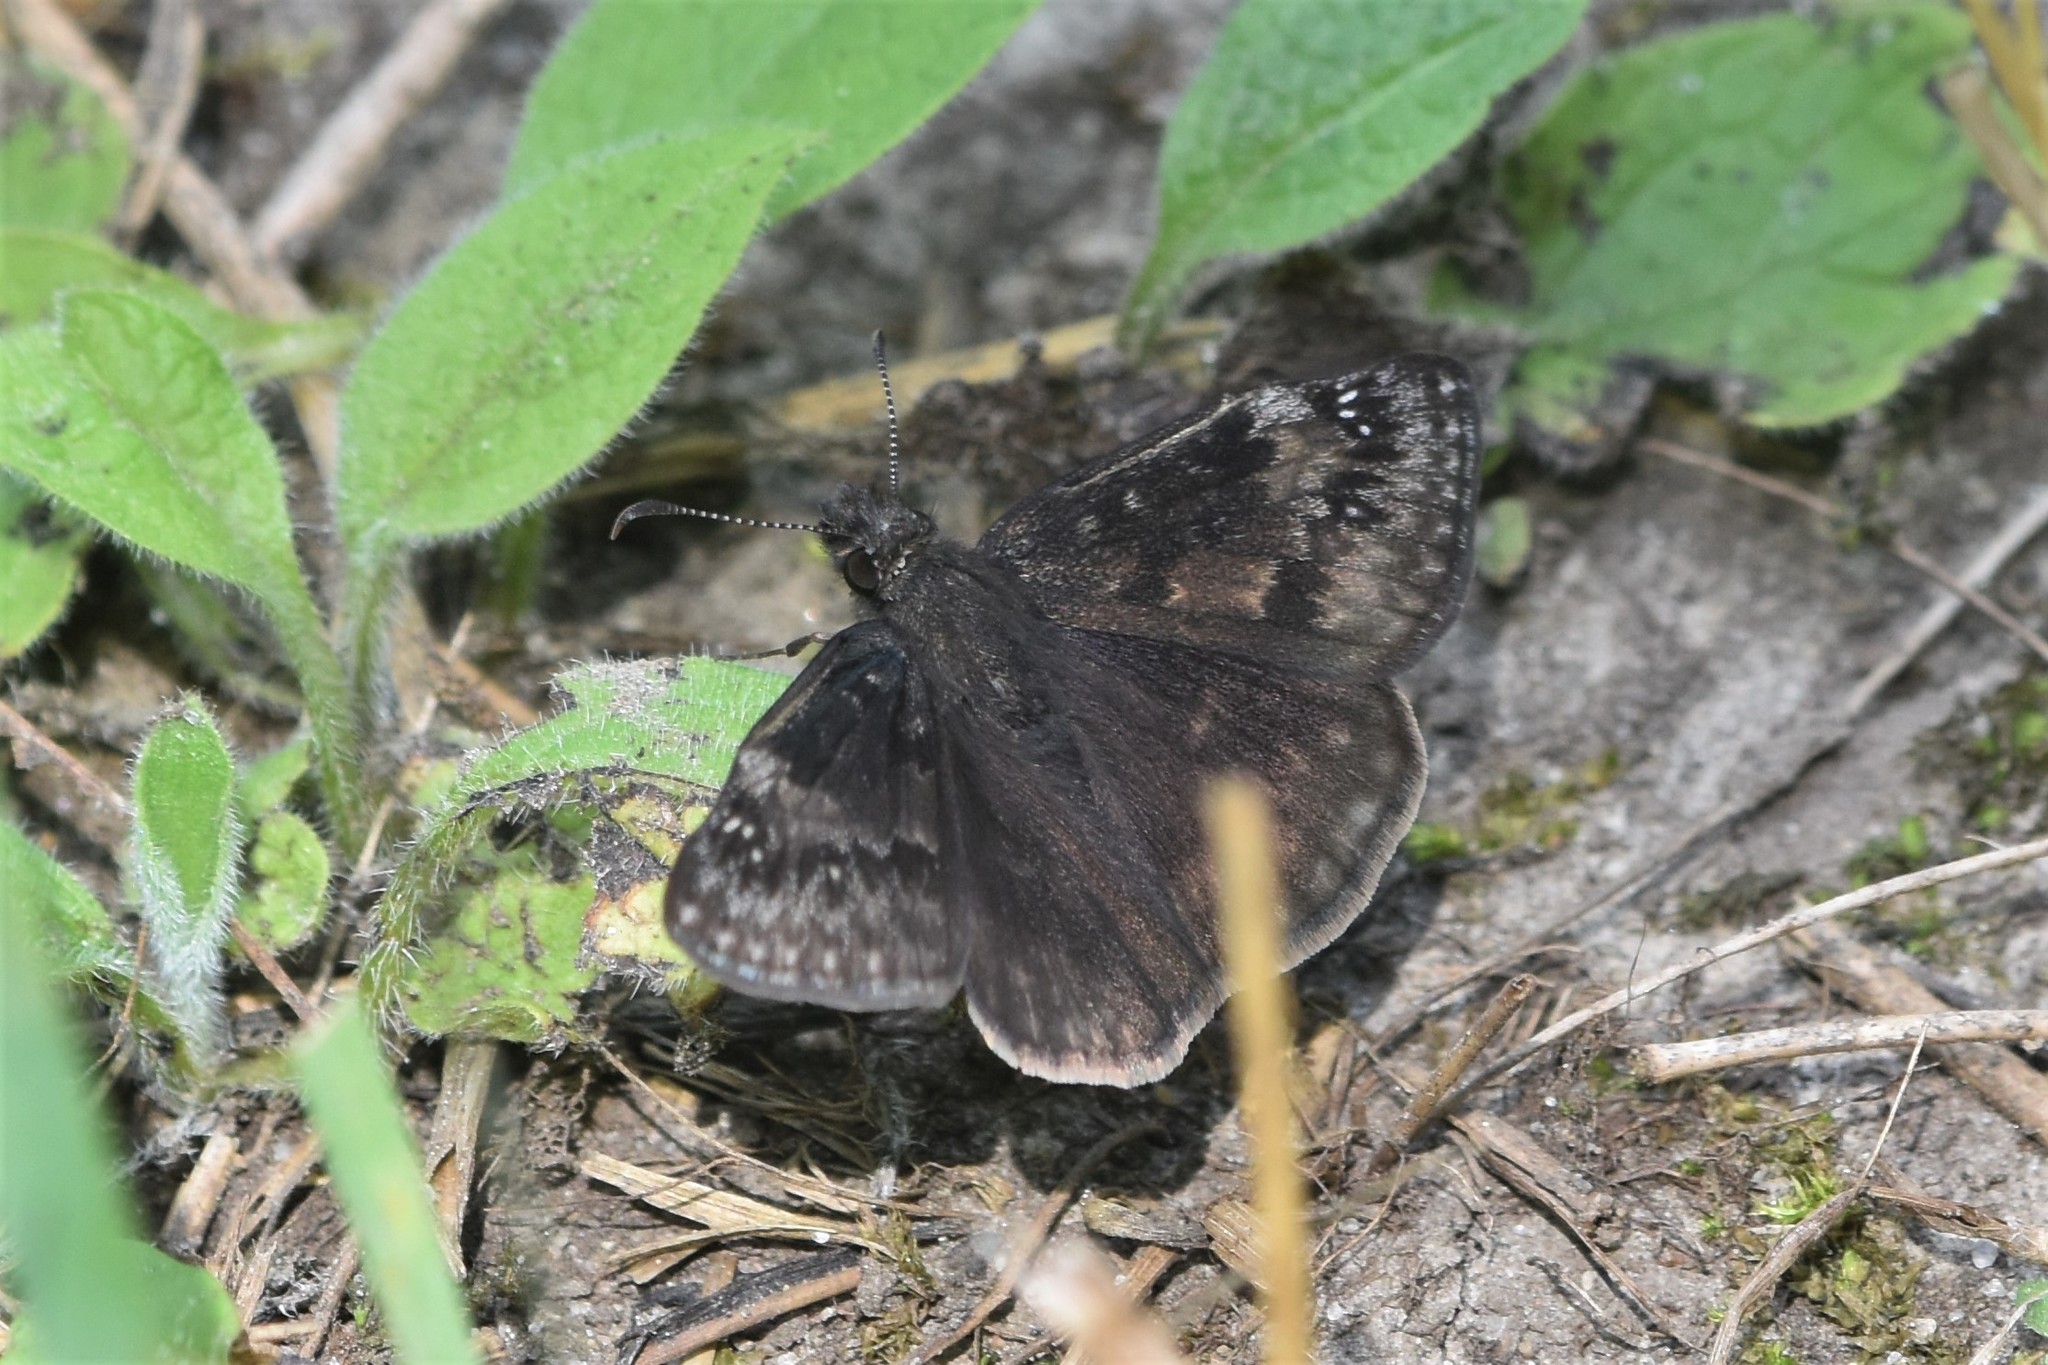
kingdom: Animalia
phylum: Arthropoda
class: Insecta
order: Lepidoptera
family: Hesperiidae
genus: Erynnis
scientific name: Erynnis baptisiae
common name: Wild indigo duskywing
